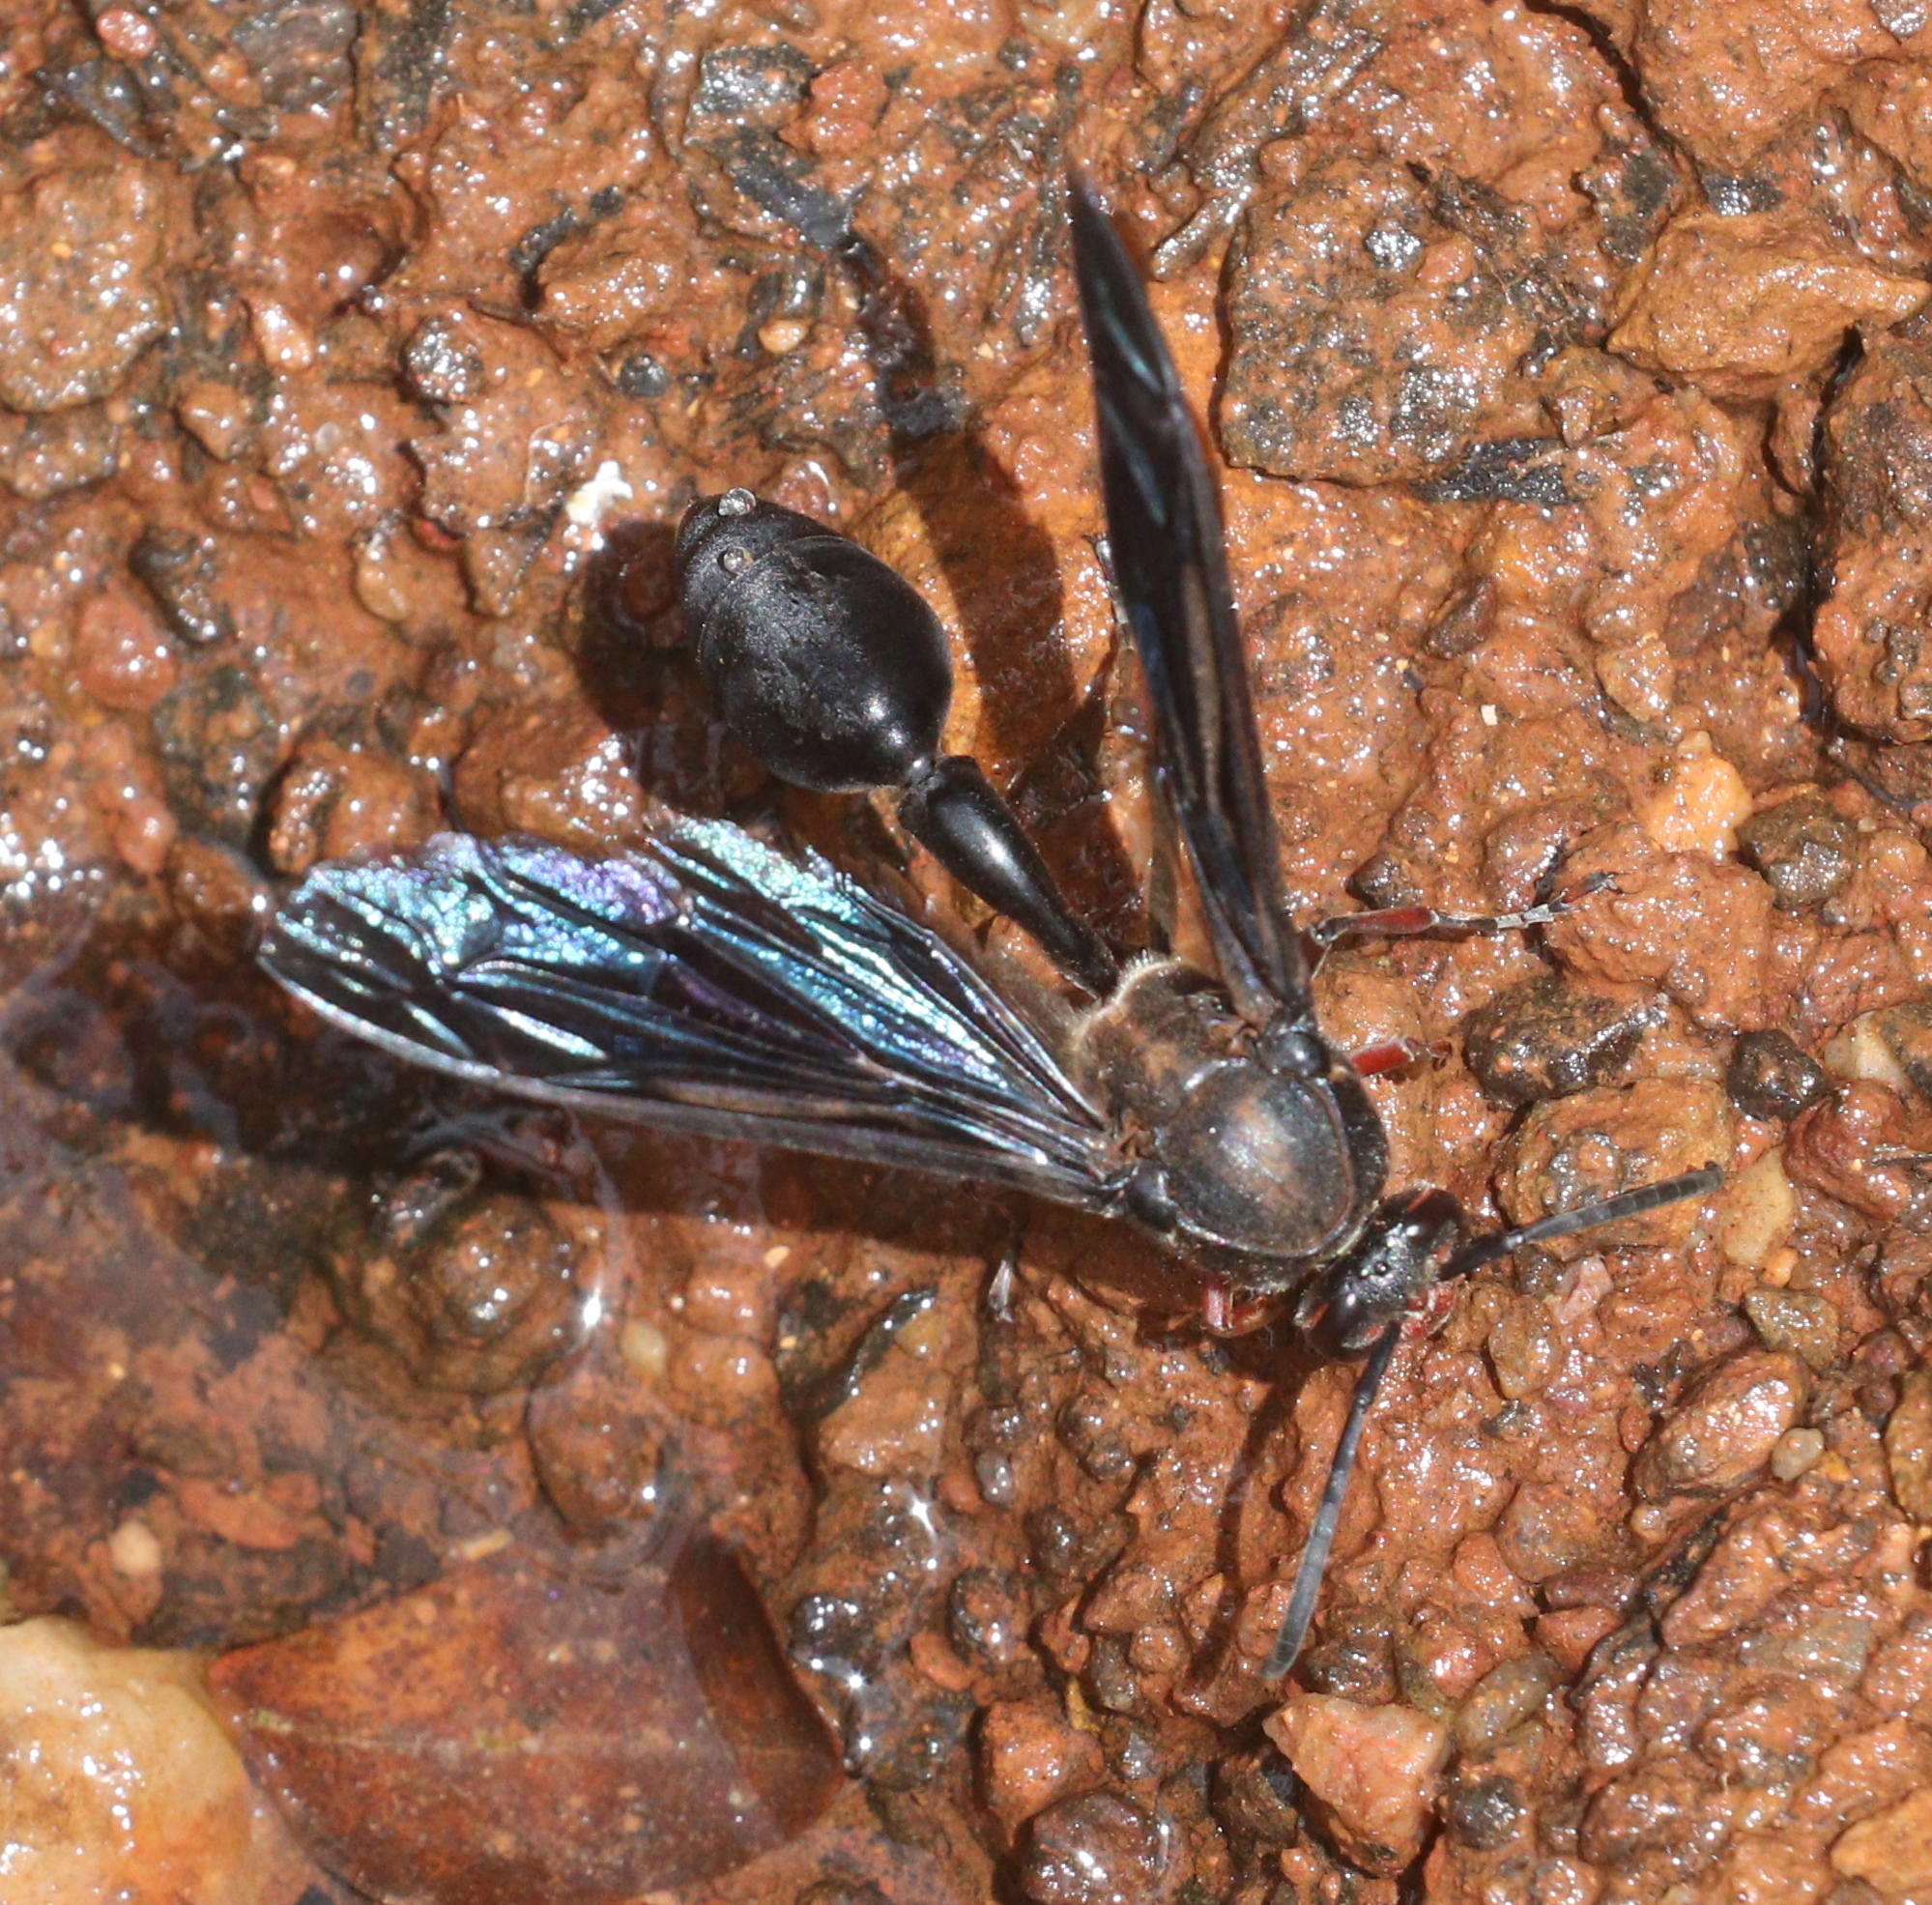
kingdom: Animalia
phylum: Arthropoda
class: Insecta
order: Hymenoptera
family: Eumenidae
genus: Delta
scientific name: Delta
